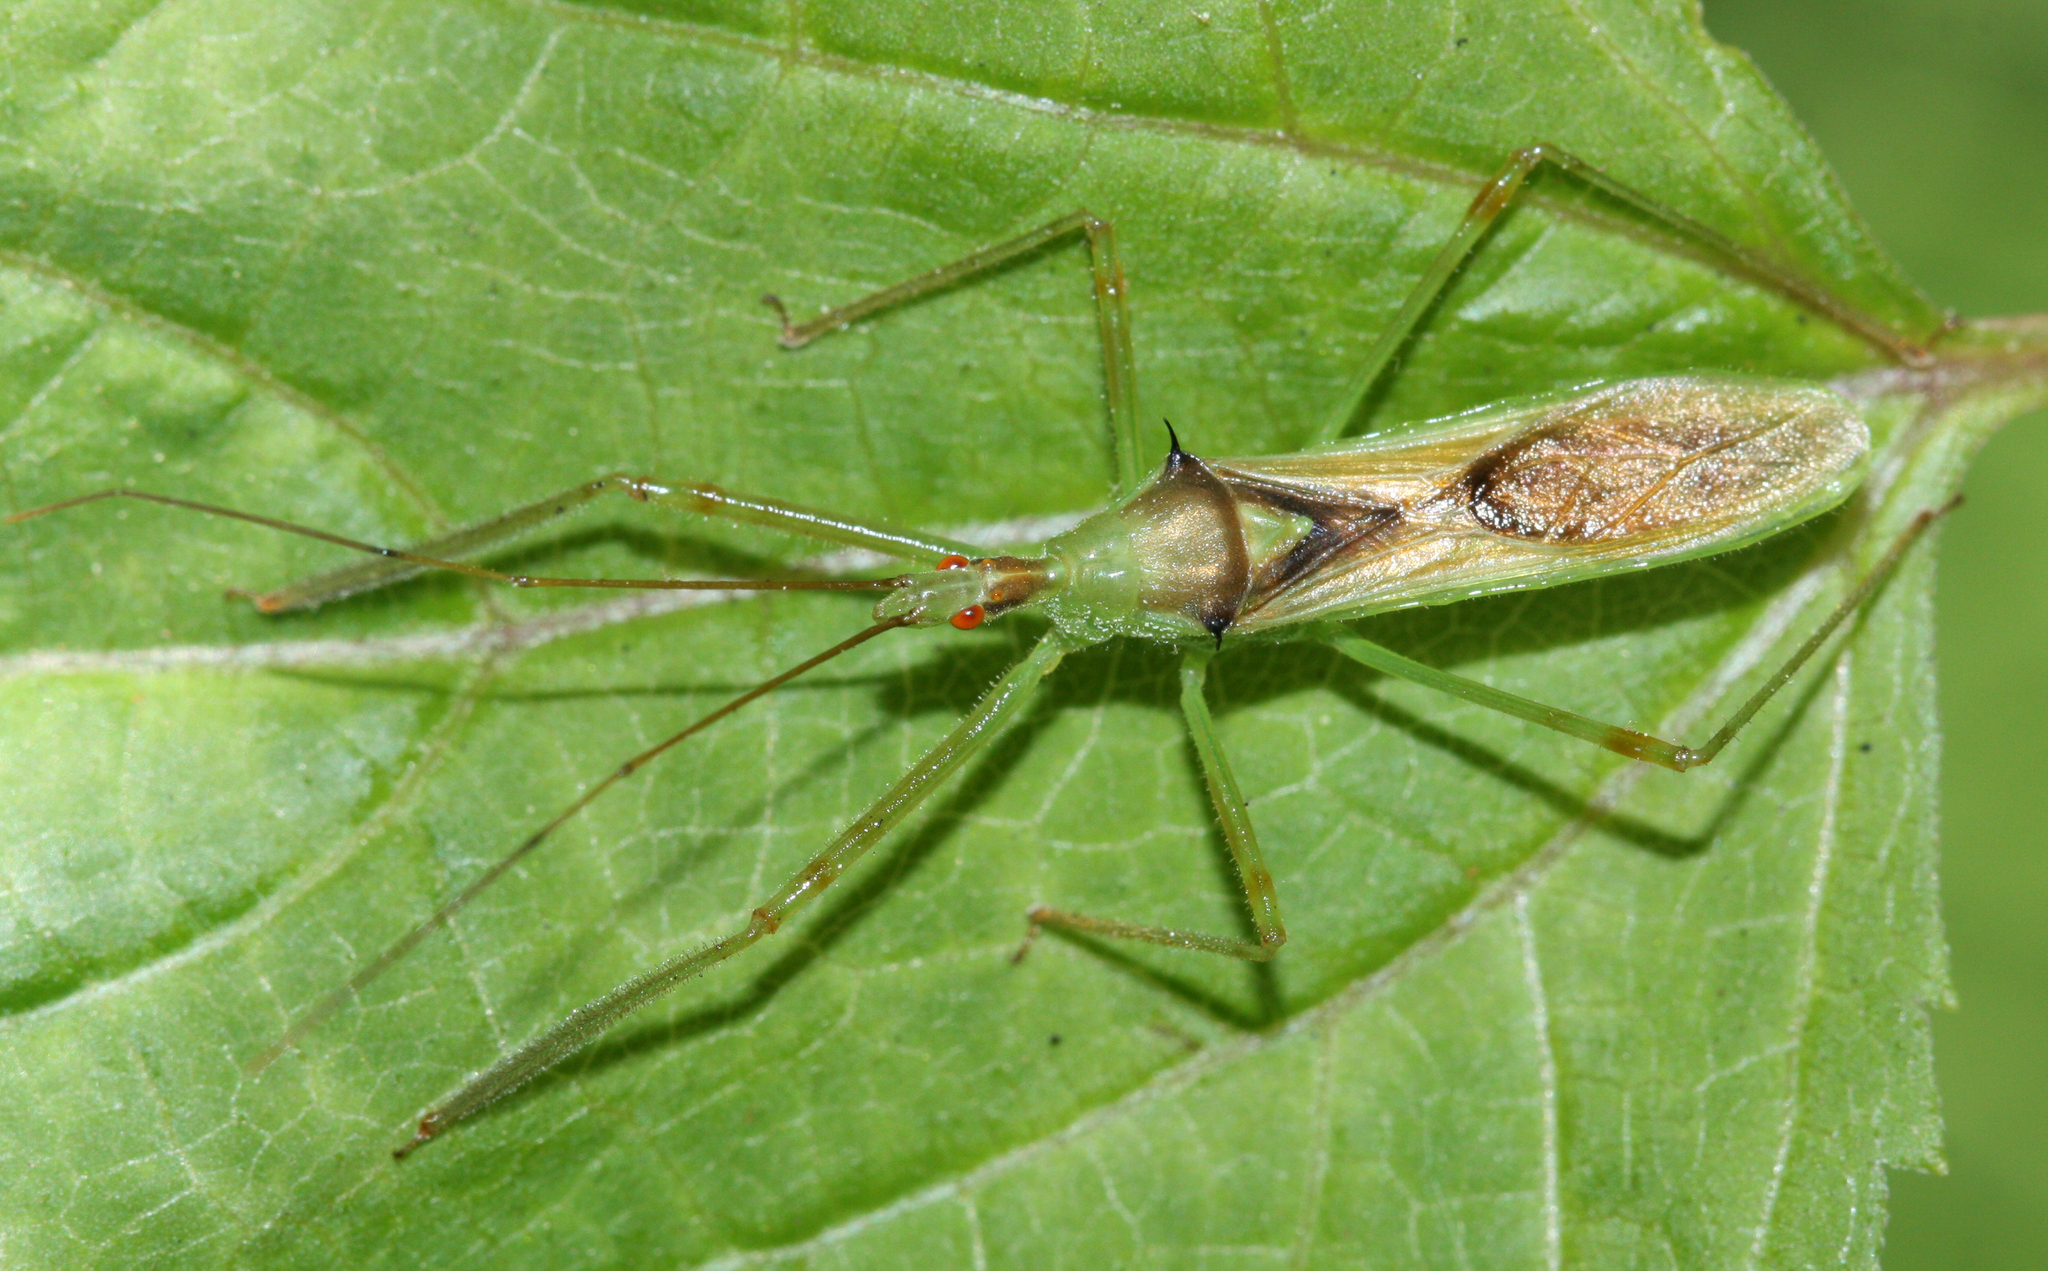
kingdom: Animalia
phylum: Arthropoda
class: Insecta
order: Hemiptera
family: Reduviidae
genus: Zelus
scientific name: Zelus luridus
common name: Pale green assassin bug
